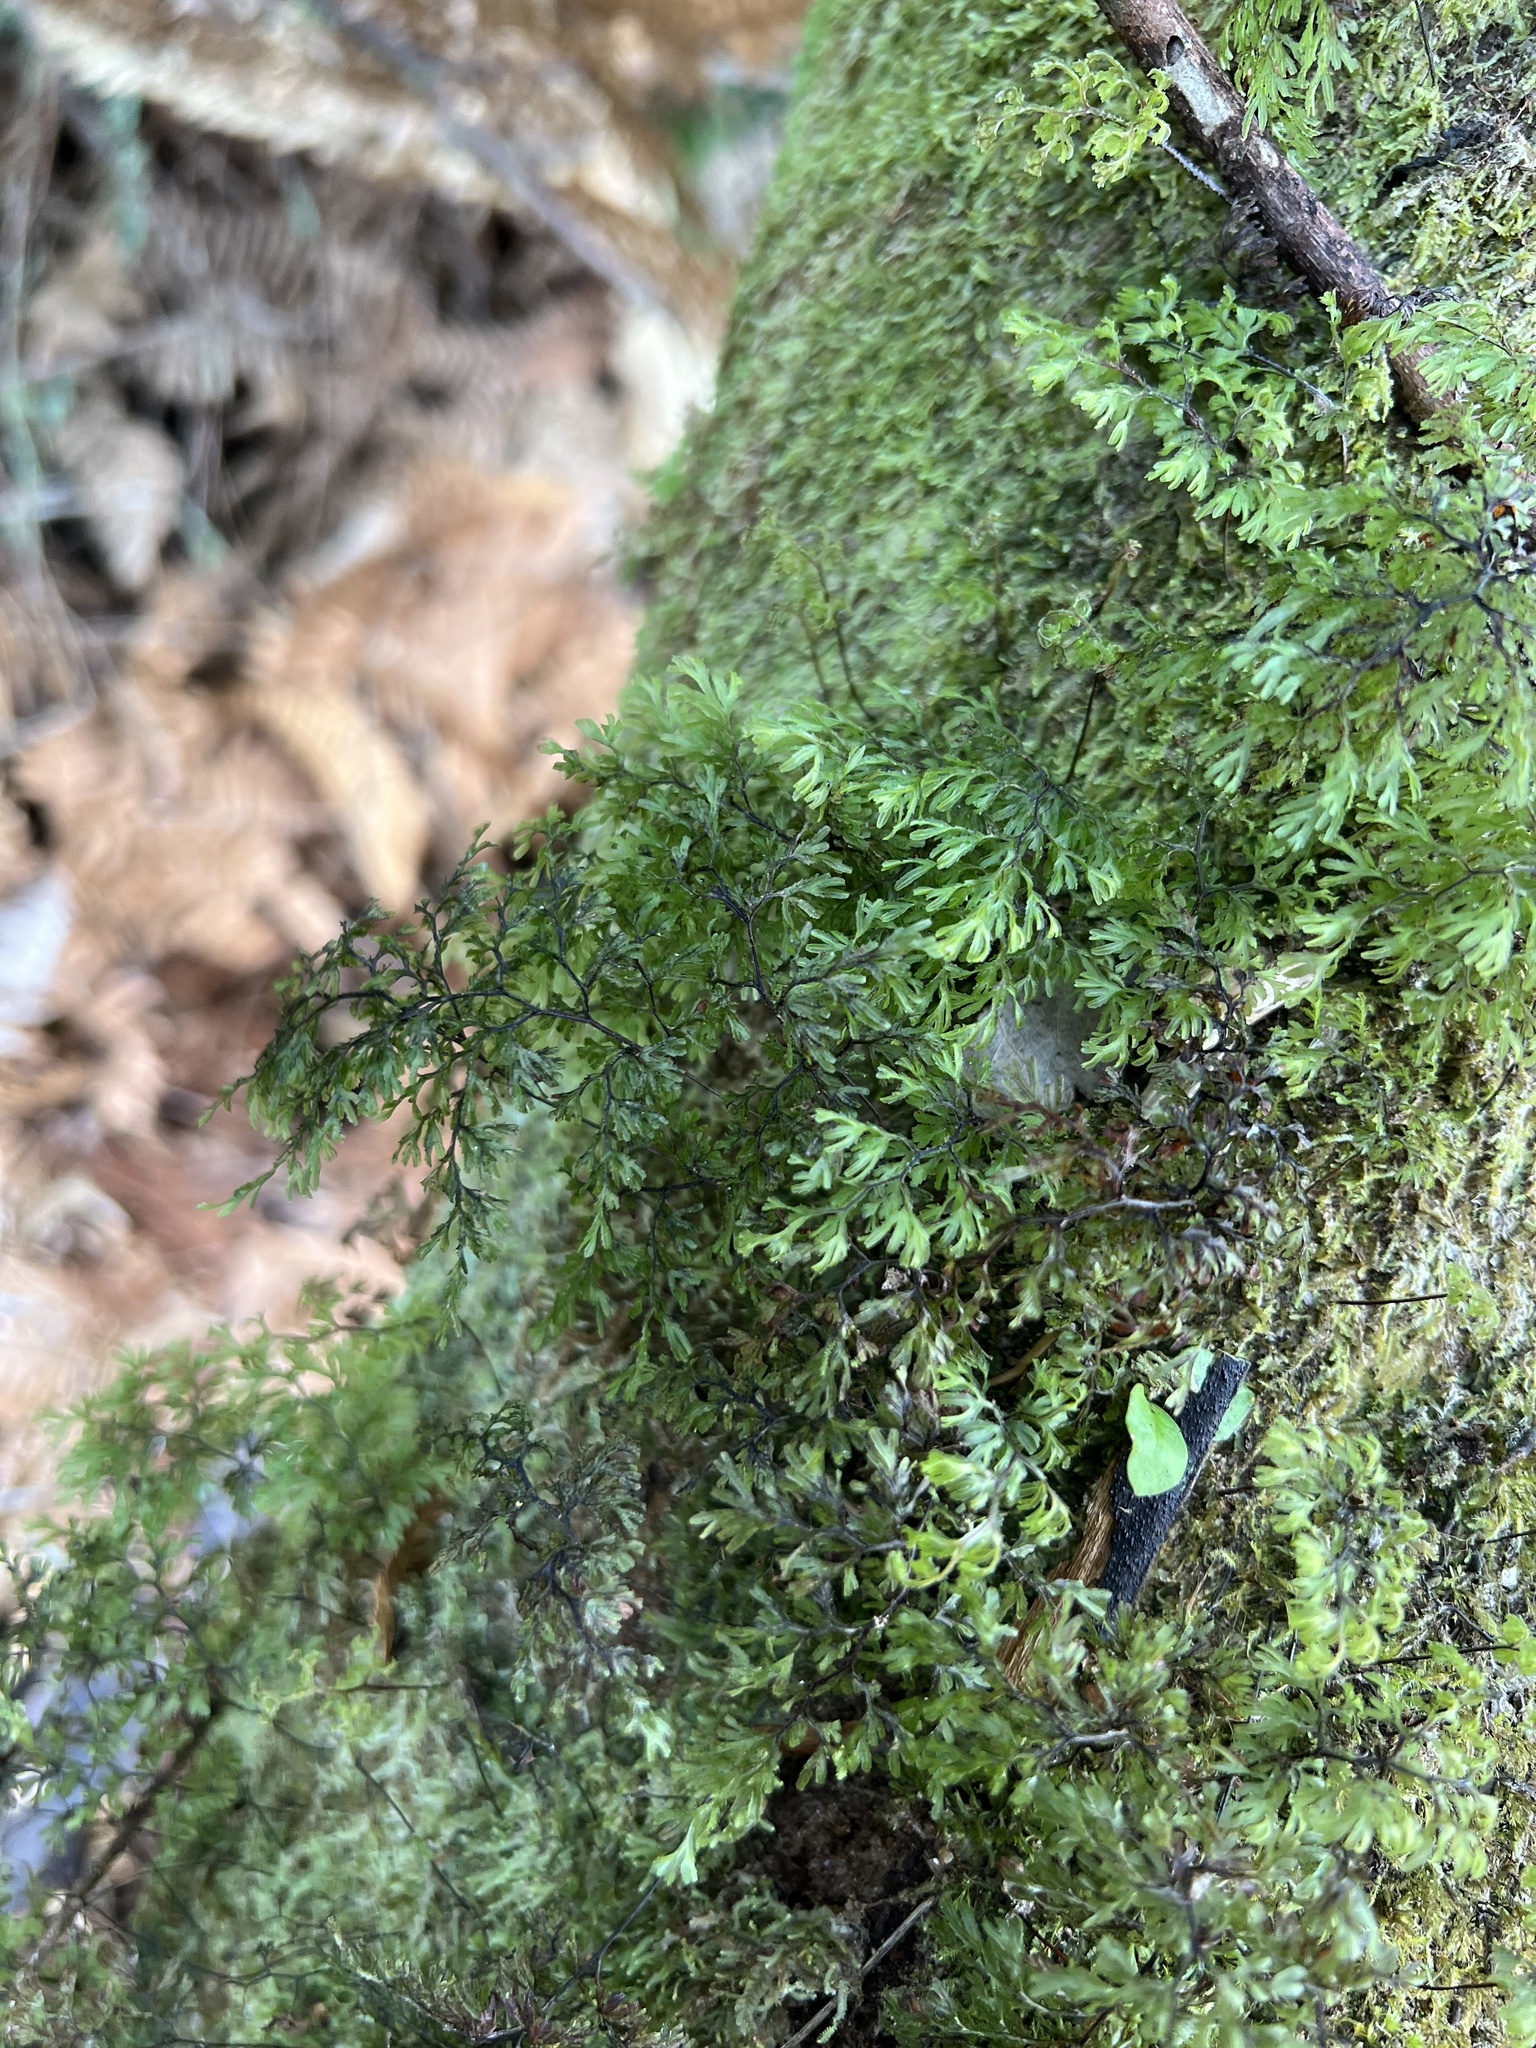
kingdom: Plantae
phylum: Tracheophyta
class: Polypodiopsida
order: Hymenophyllales
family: Hymenophyllaceae
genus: Hymenophyllum
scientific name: Hymenophyllum multifidum
